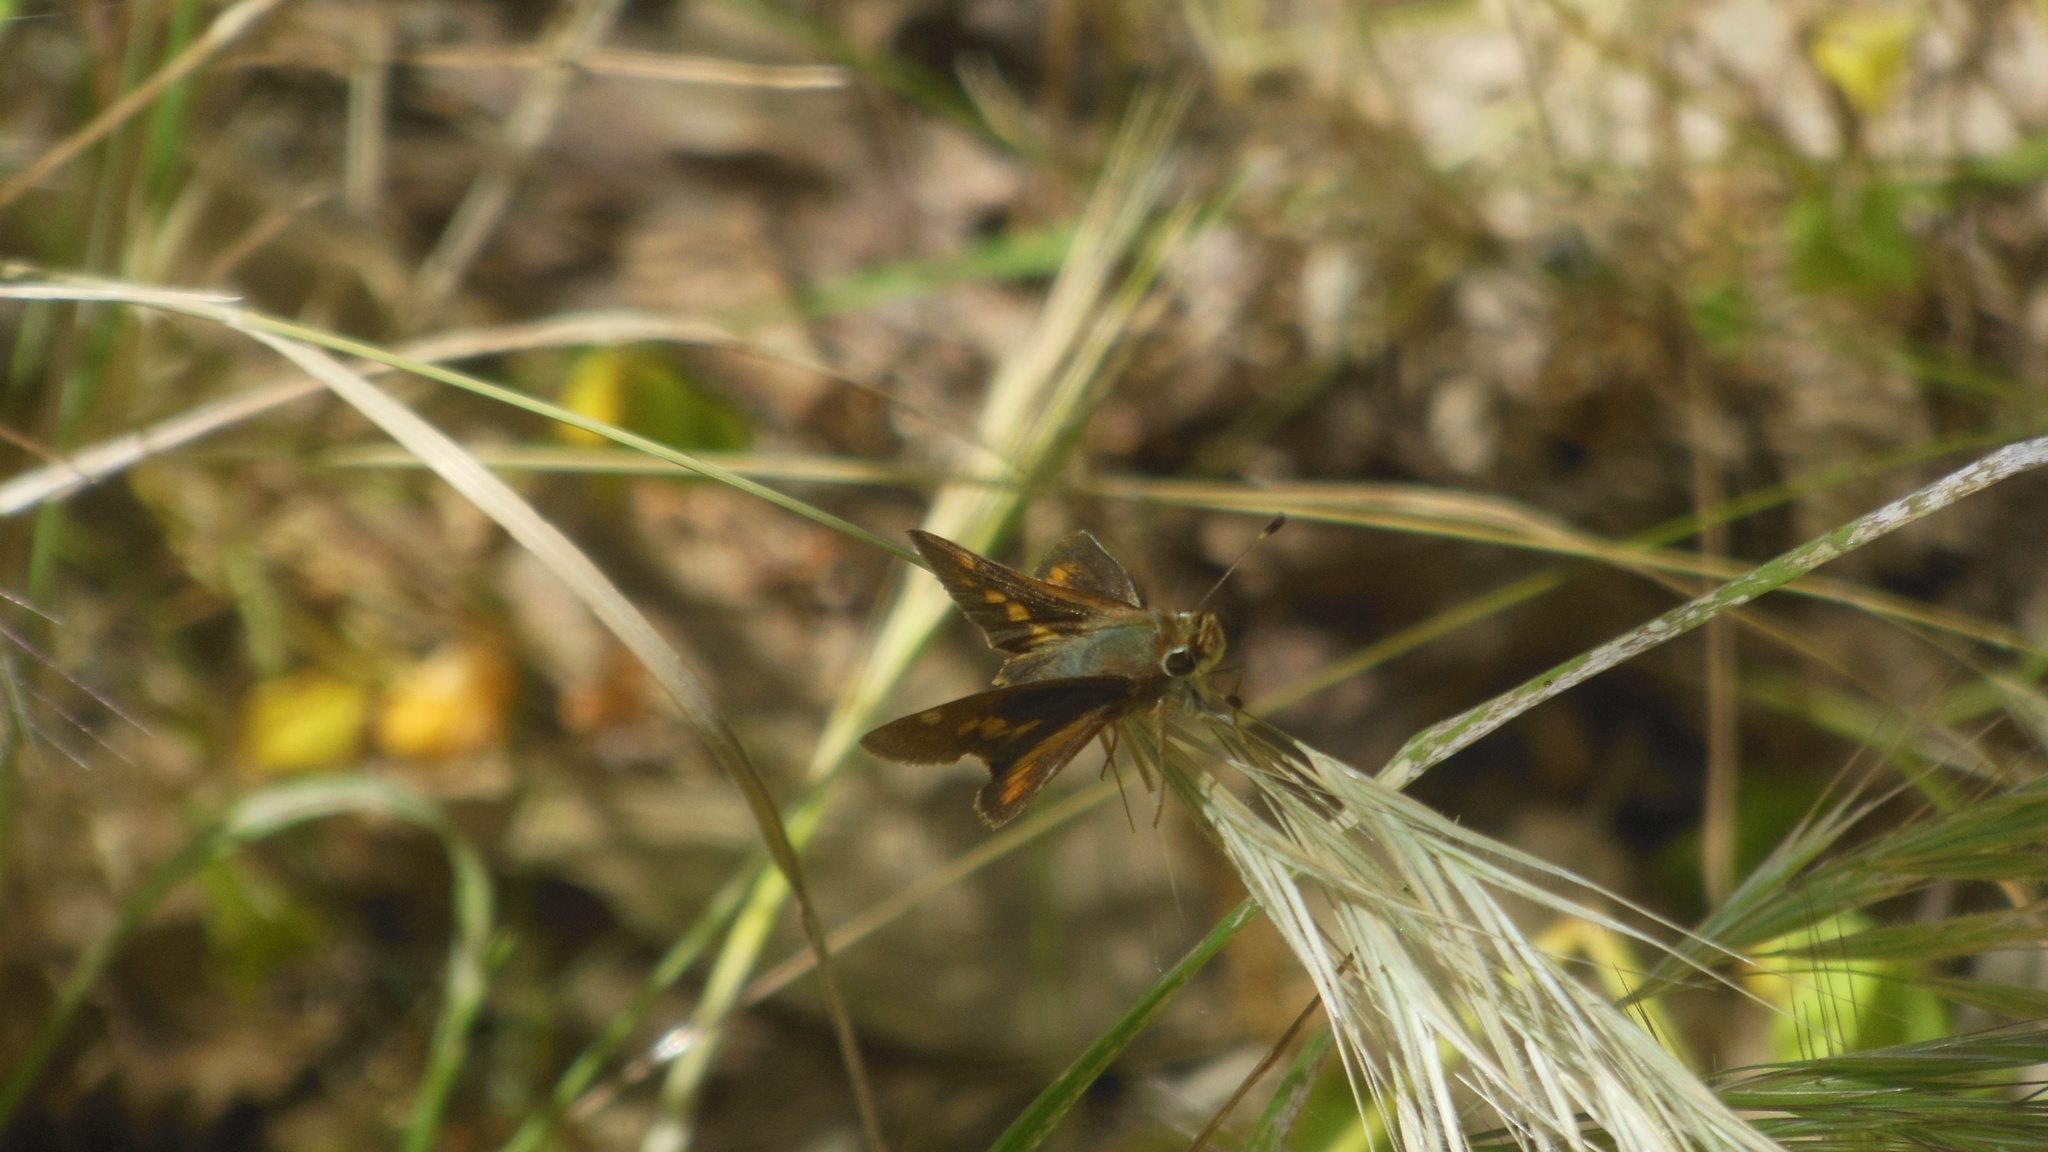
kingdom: Animalia
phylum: Arthropoda
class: Insecta
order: Lepidoptera
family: Hesperiidae
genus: Lon
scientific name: Lon melane
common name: Umber skipper
